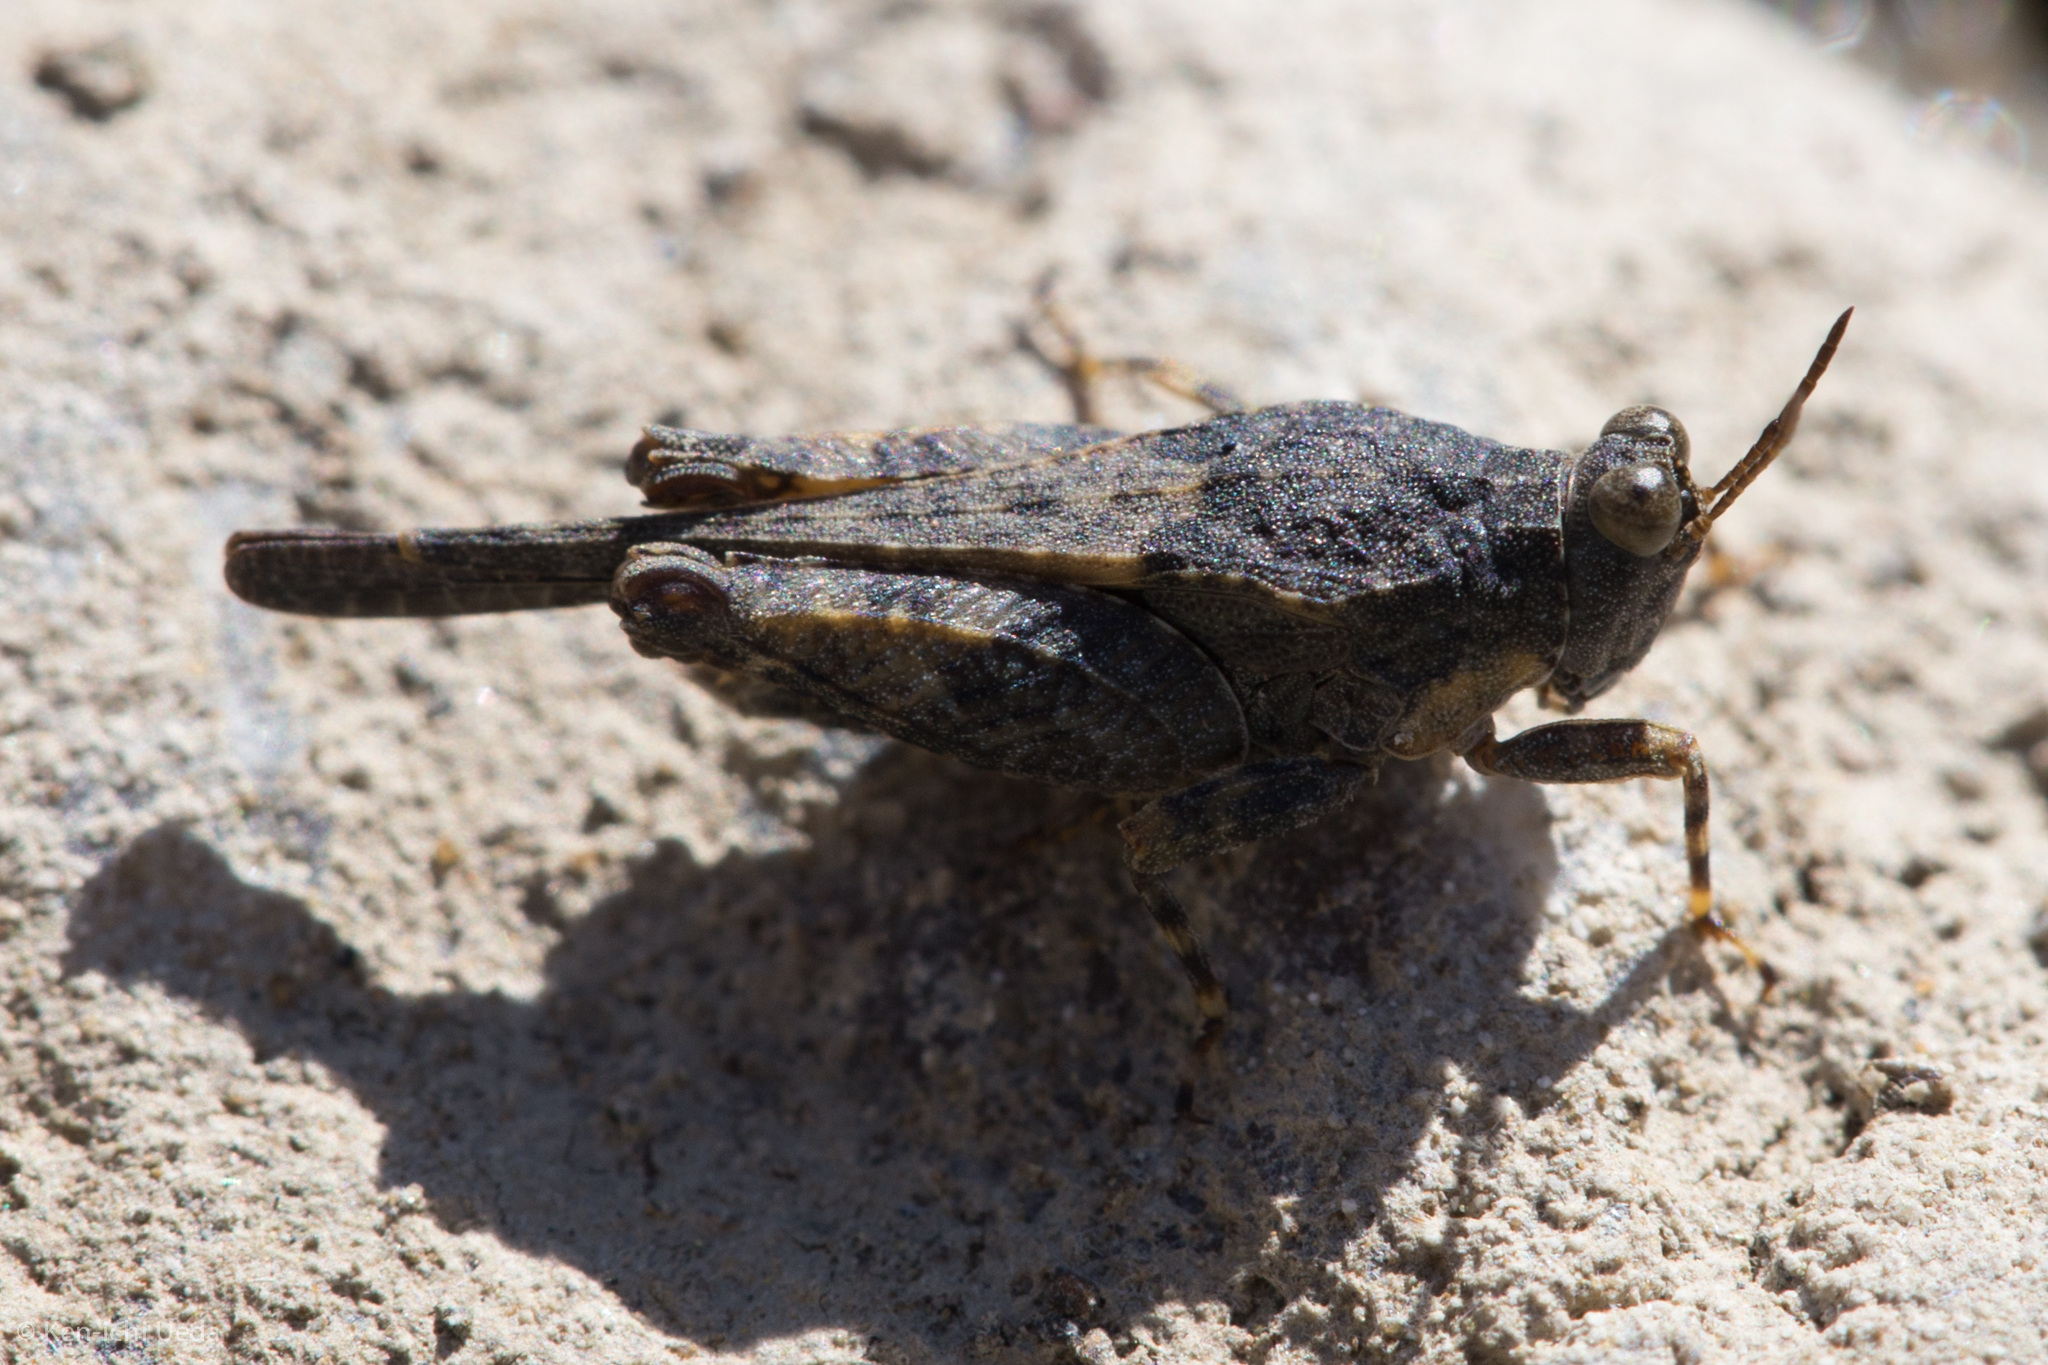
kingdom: Animalia
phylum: Arthropoda
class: Insecta
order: Orthoptera
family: Tetrigidae
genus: Paratettix
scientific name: Paratettix aztecus
